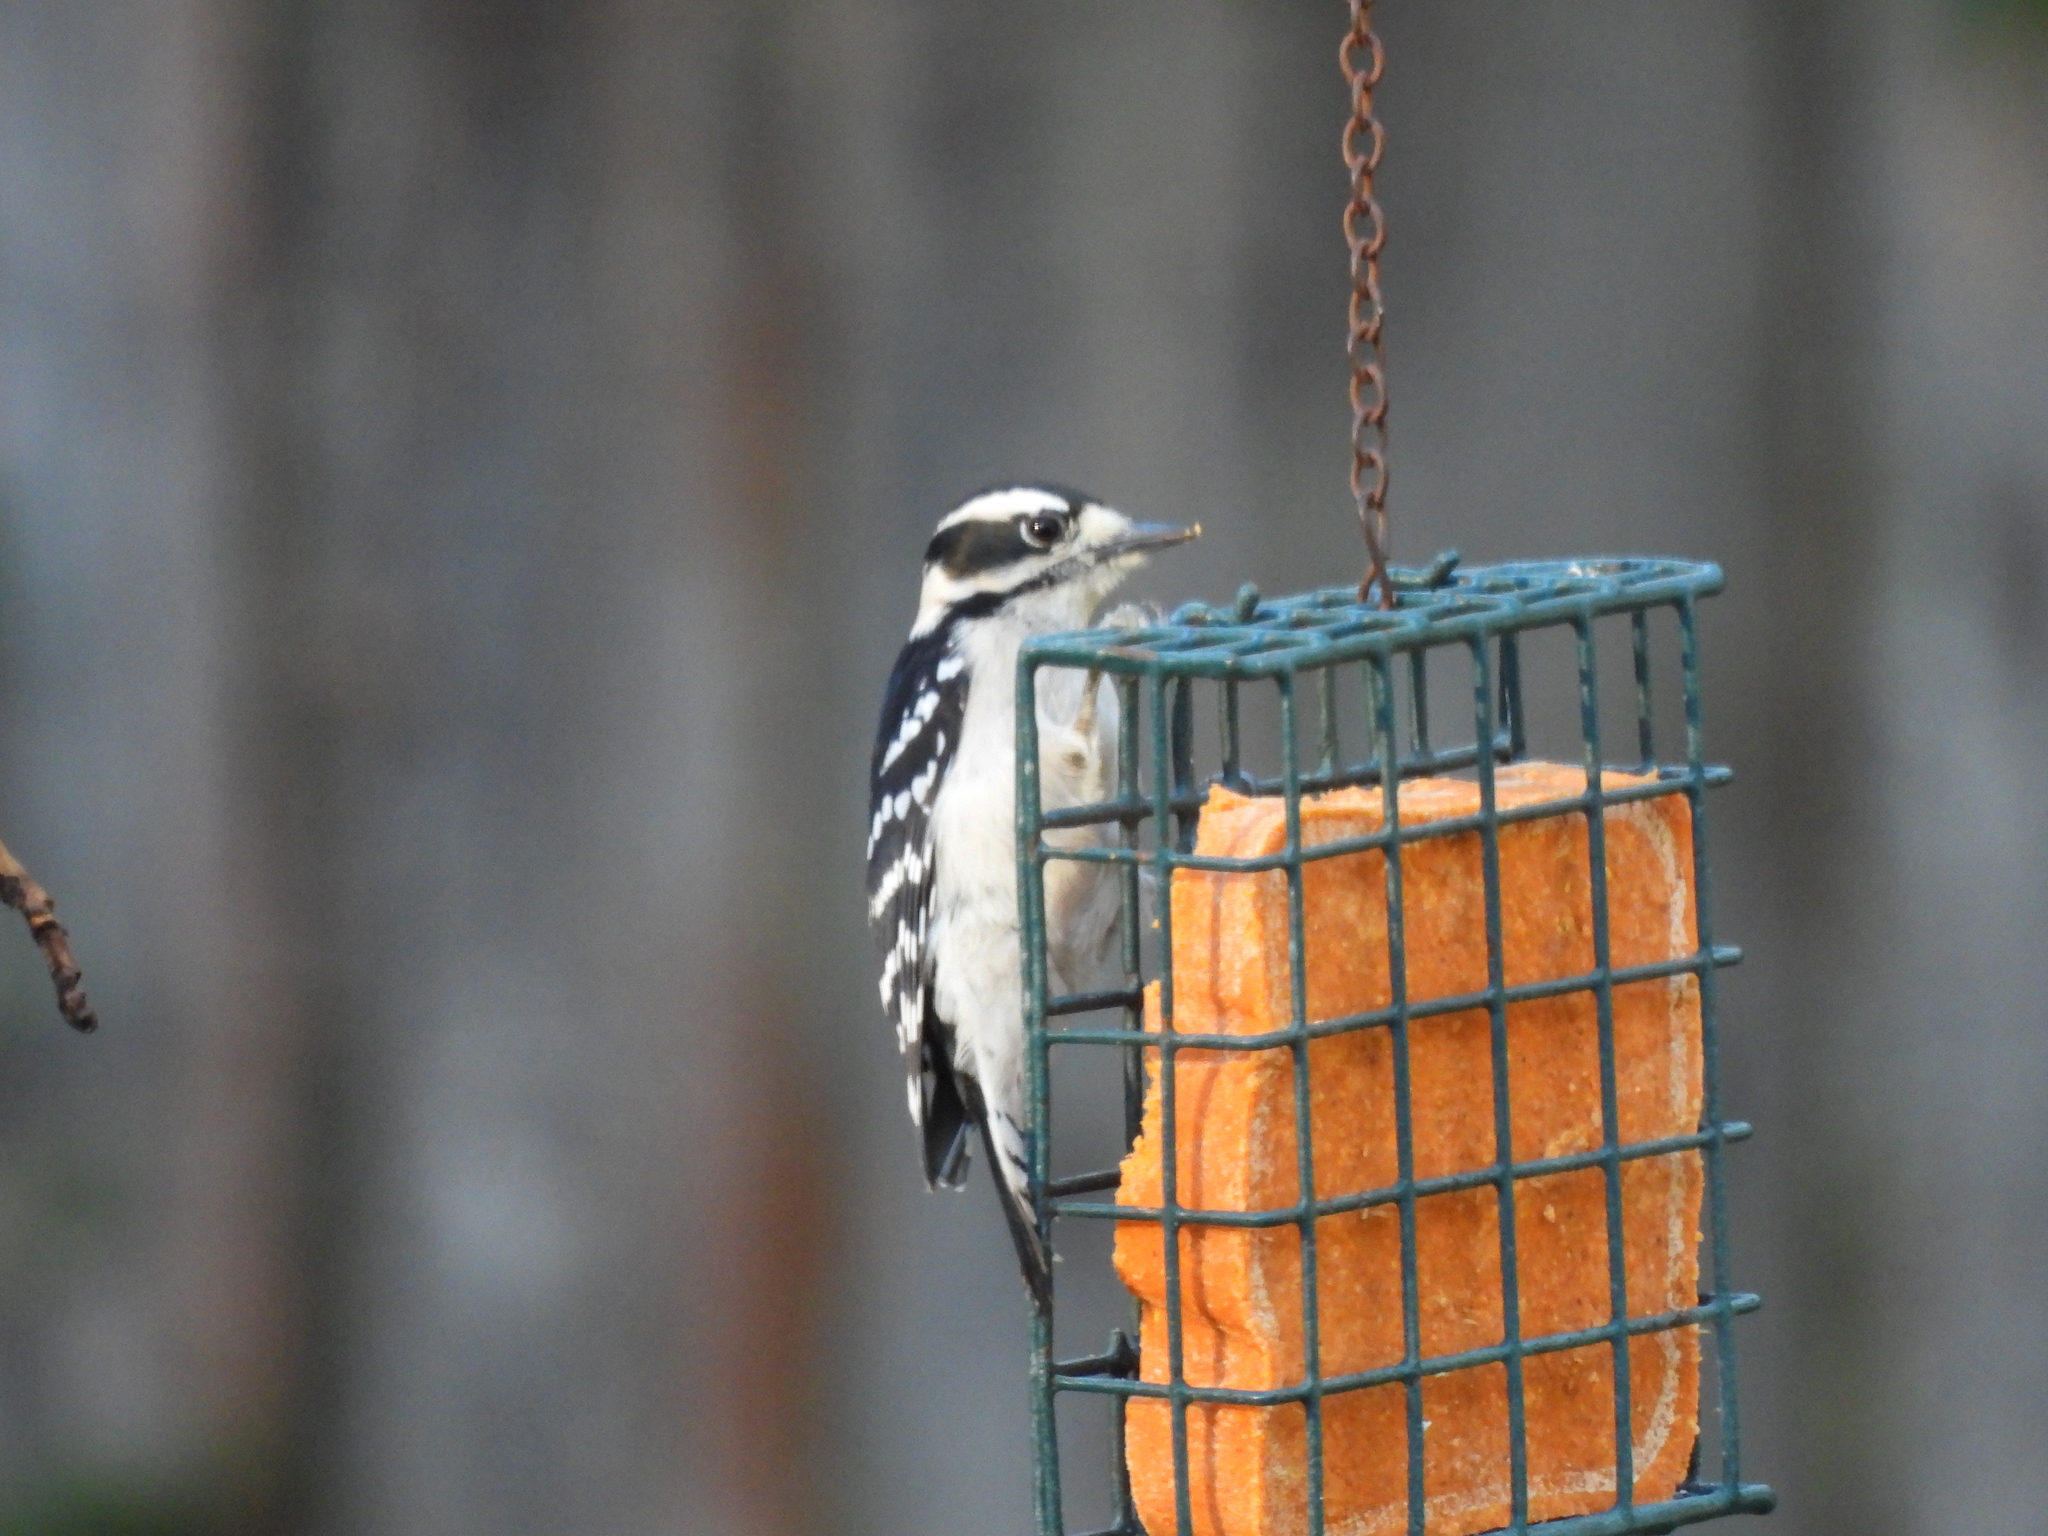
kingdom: Animalia
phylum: Chordata
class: Aves
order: Piciformes
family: Picidae
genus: Dryobates
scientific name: Dryobates pubescens
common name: Downy woodpecker
